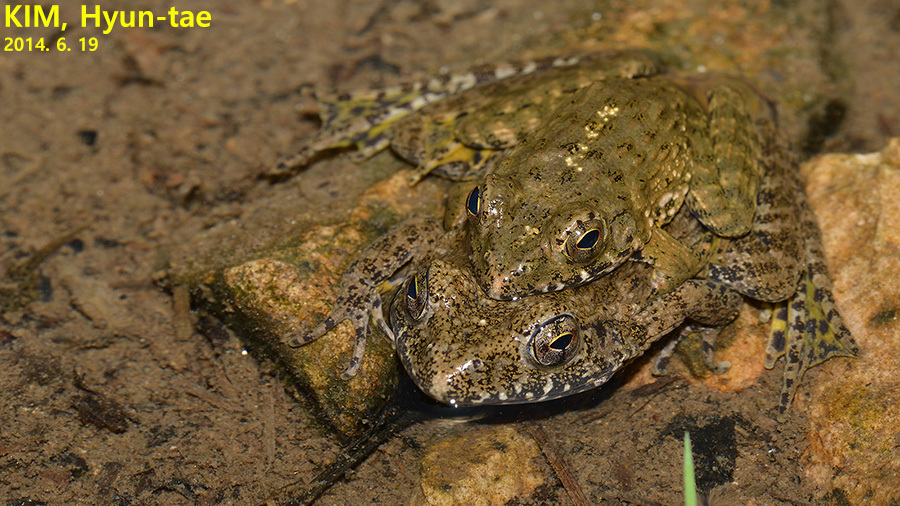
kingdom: Animalia
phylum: Chordata
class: Amphibia
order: Anura
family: Ranidae
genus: Glandirana
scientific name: Glandirana emeljanovi
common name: Northeast china rough-skinned frog
